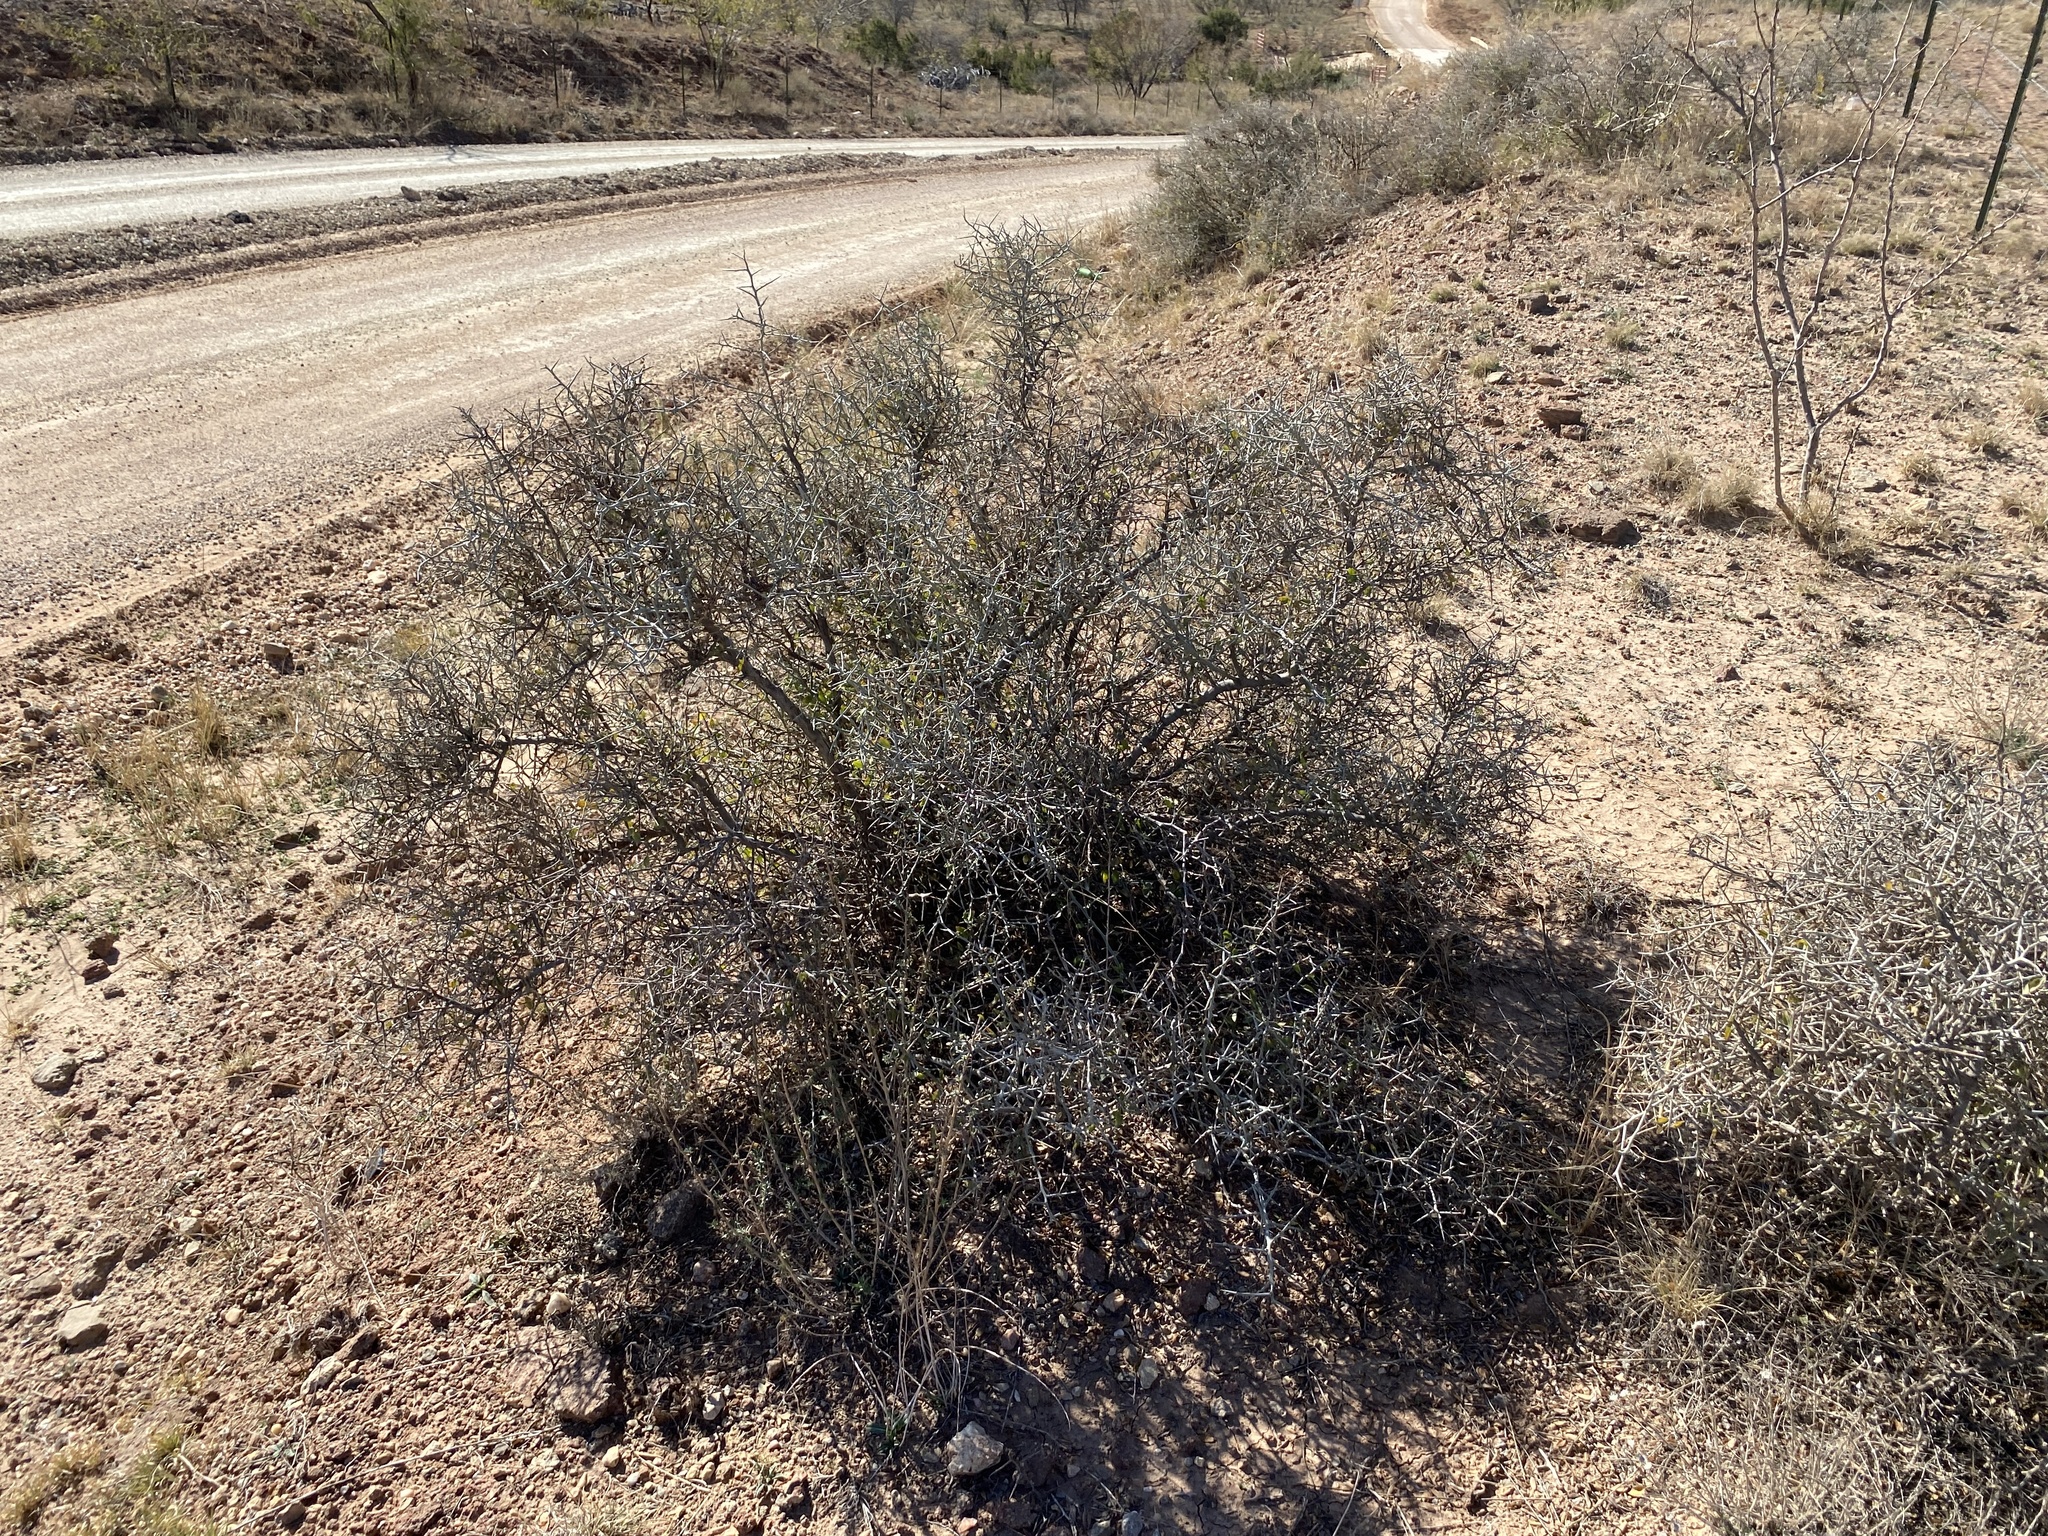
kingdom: Plantae
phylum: Tracheophyta
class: Magnoliopsida
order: Rosales
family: Rhamnaceae
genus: Sarcomphalus
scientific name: Sarcomphalus obtusifolius
